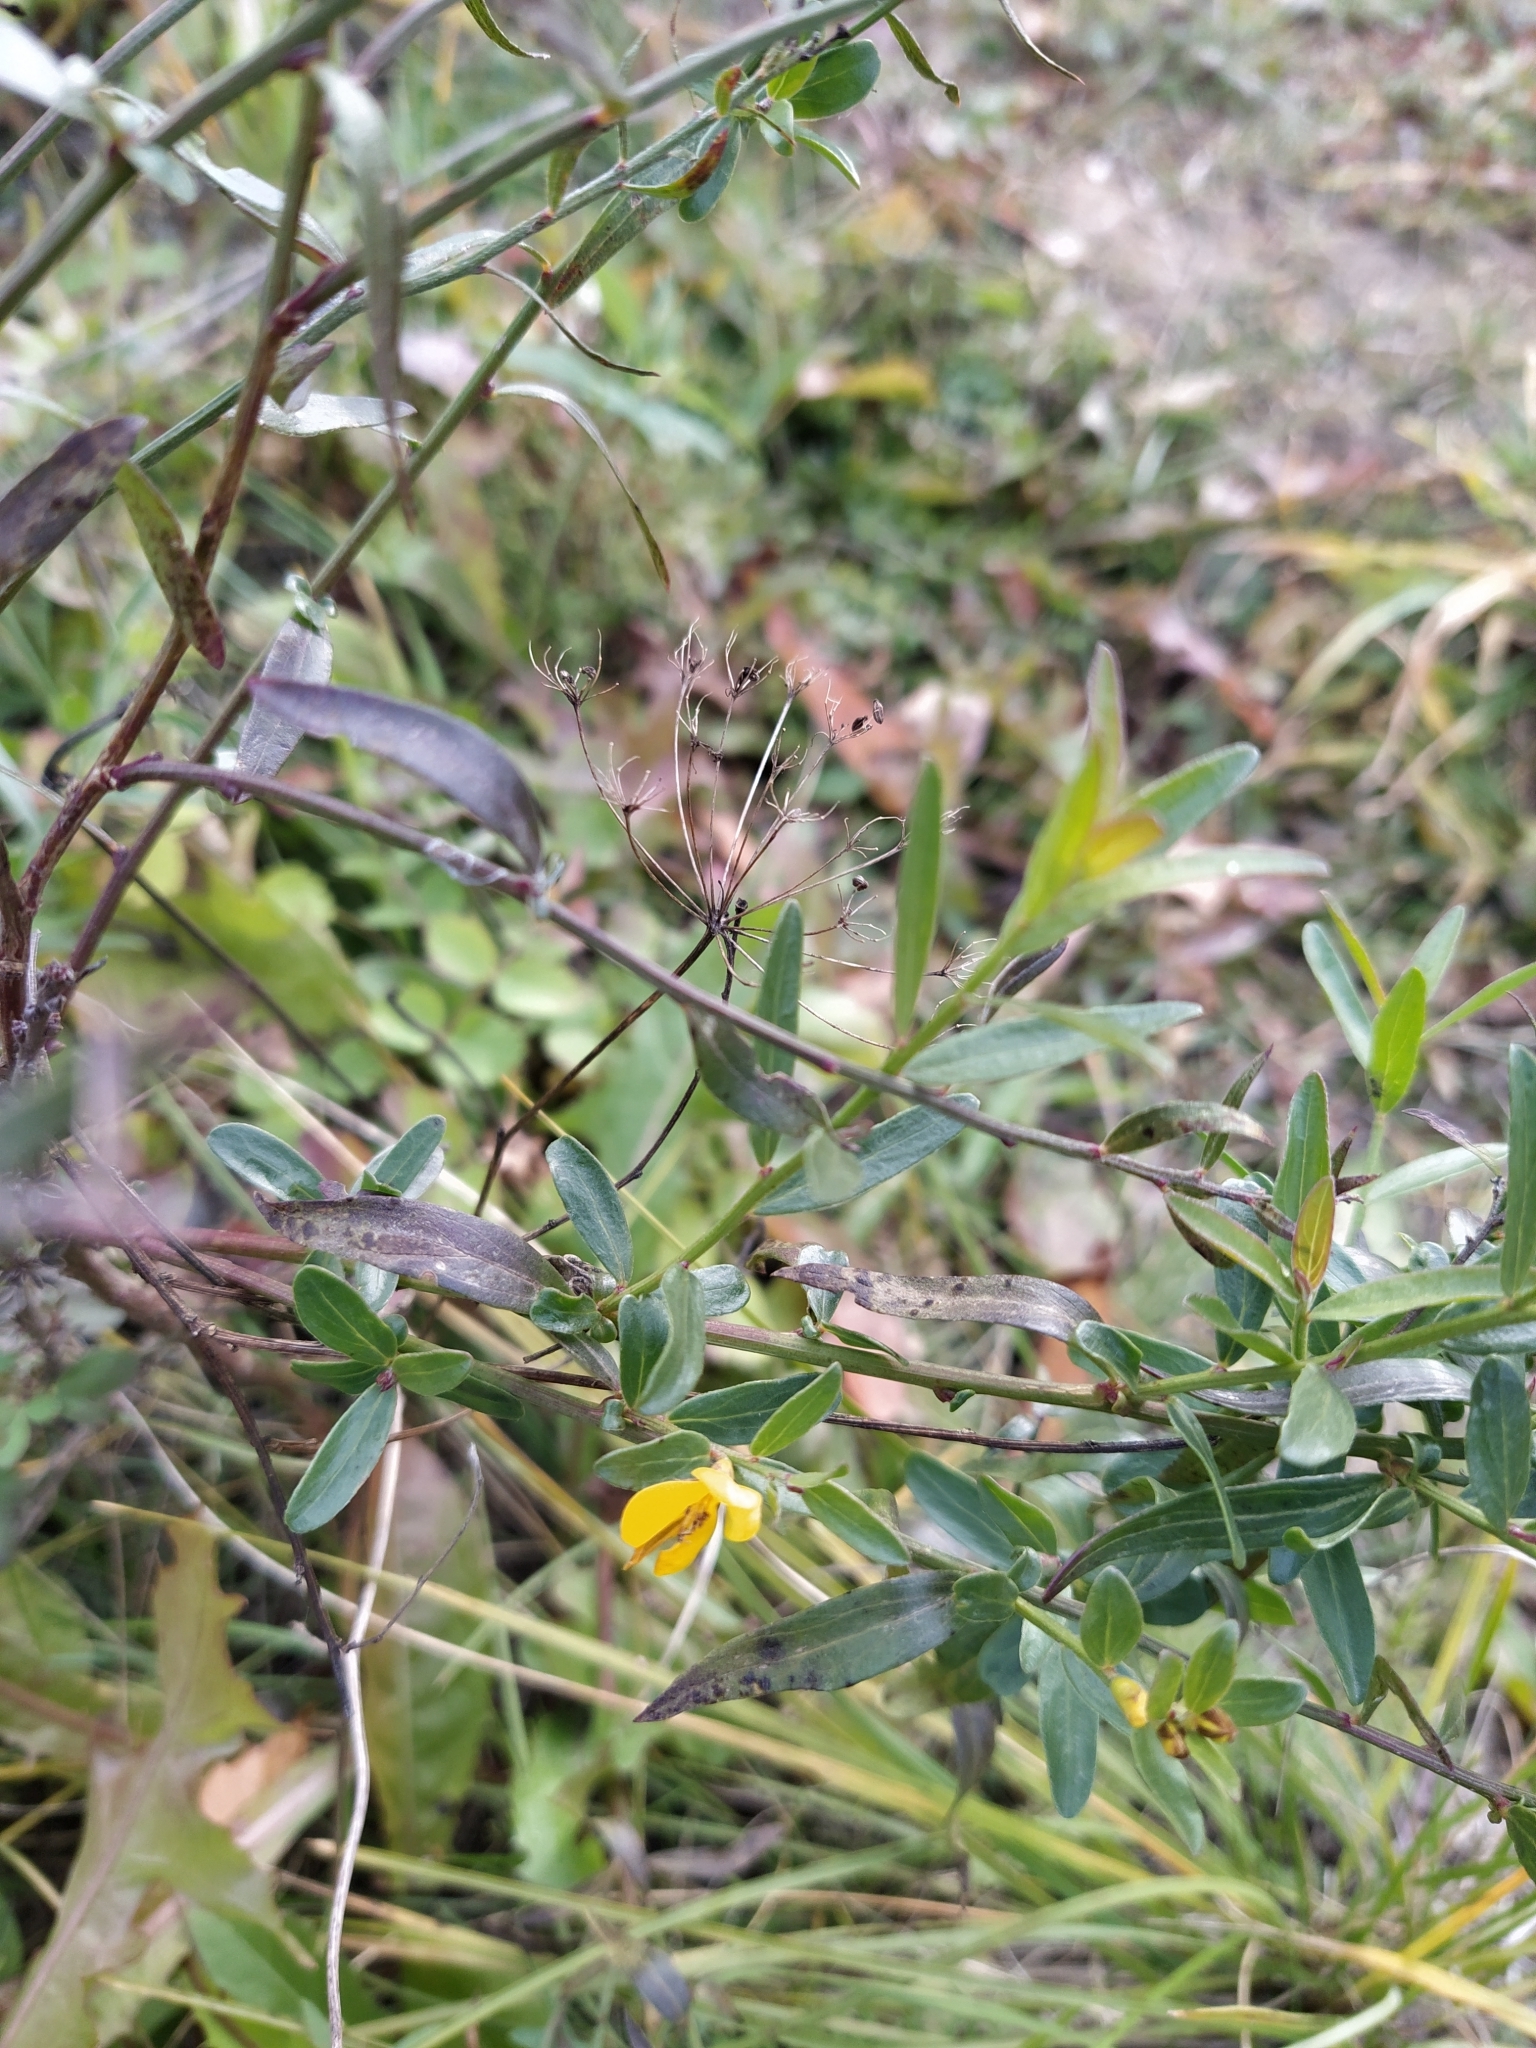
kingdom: Plantae
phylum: Tracheophyta
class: Magnoliopsida
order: Fabales
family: Fabaceae
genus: Genista
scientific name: Genista tinctoria
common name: Dyer's greenweed
